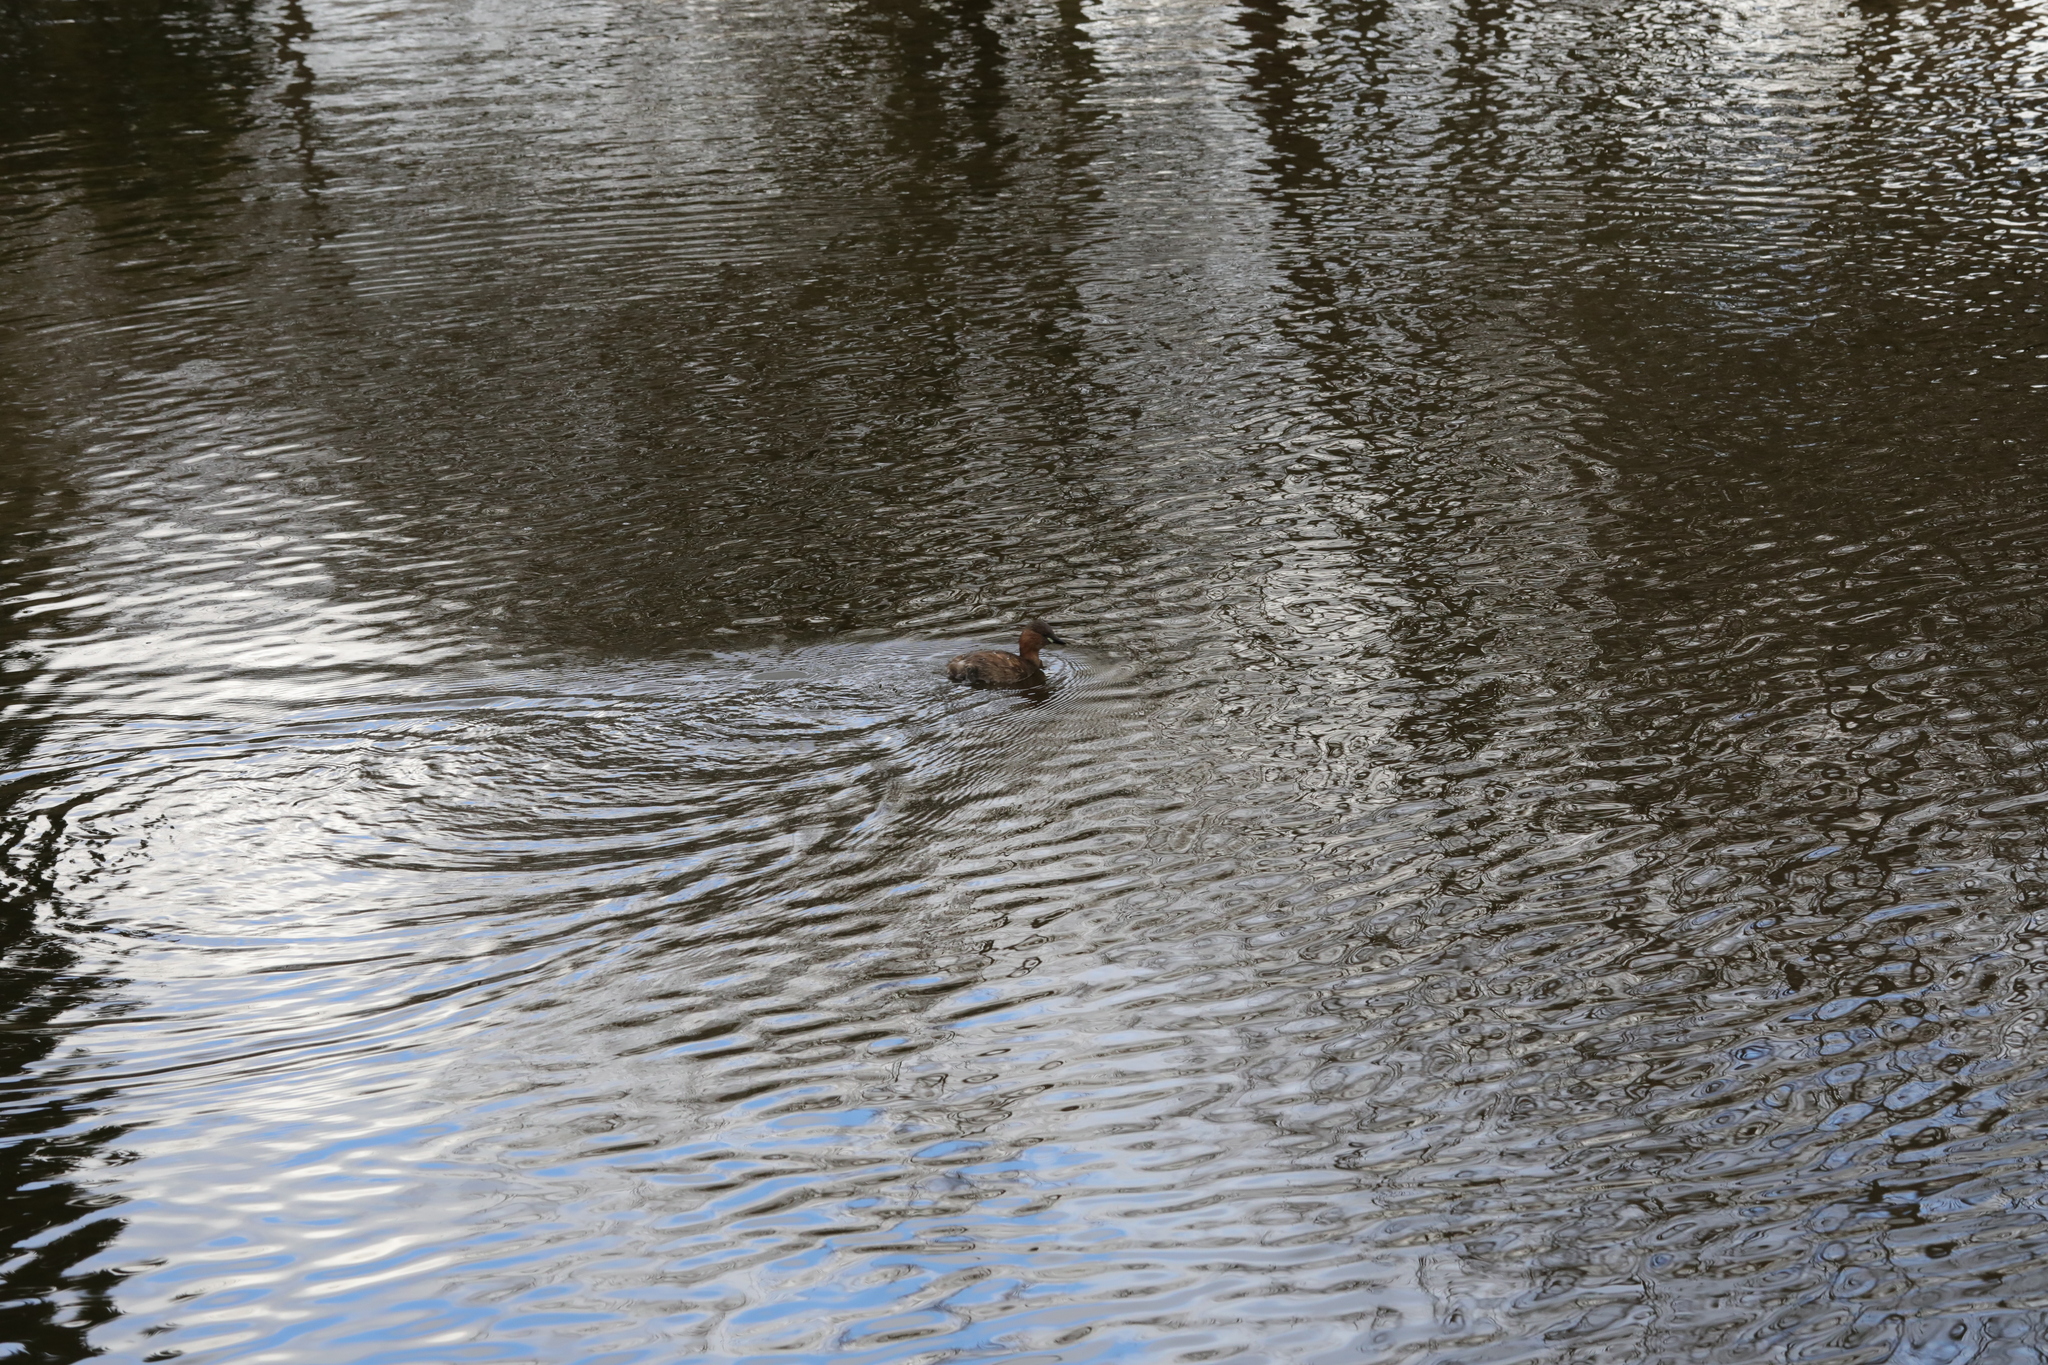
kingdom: Animalia
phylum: Chordata
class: Aves
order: Podicipediformes
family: Podicipedidae
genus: Tachybaptus
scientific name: Tachybaptus ruficollis
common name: Little grebe
